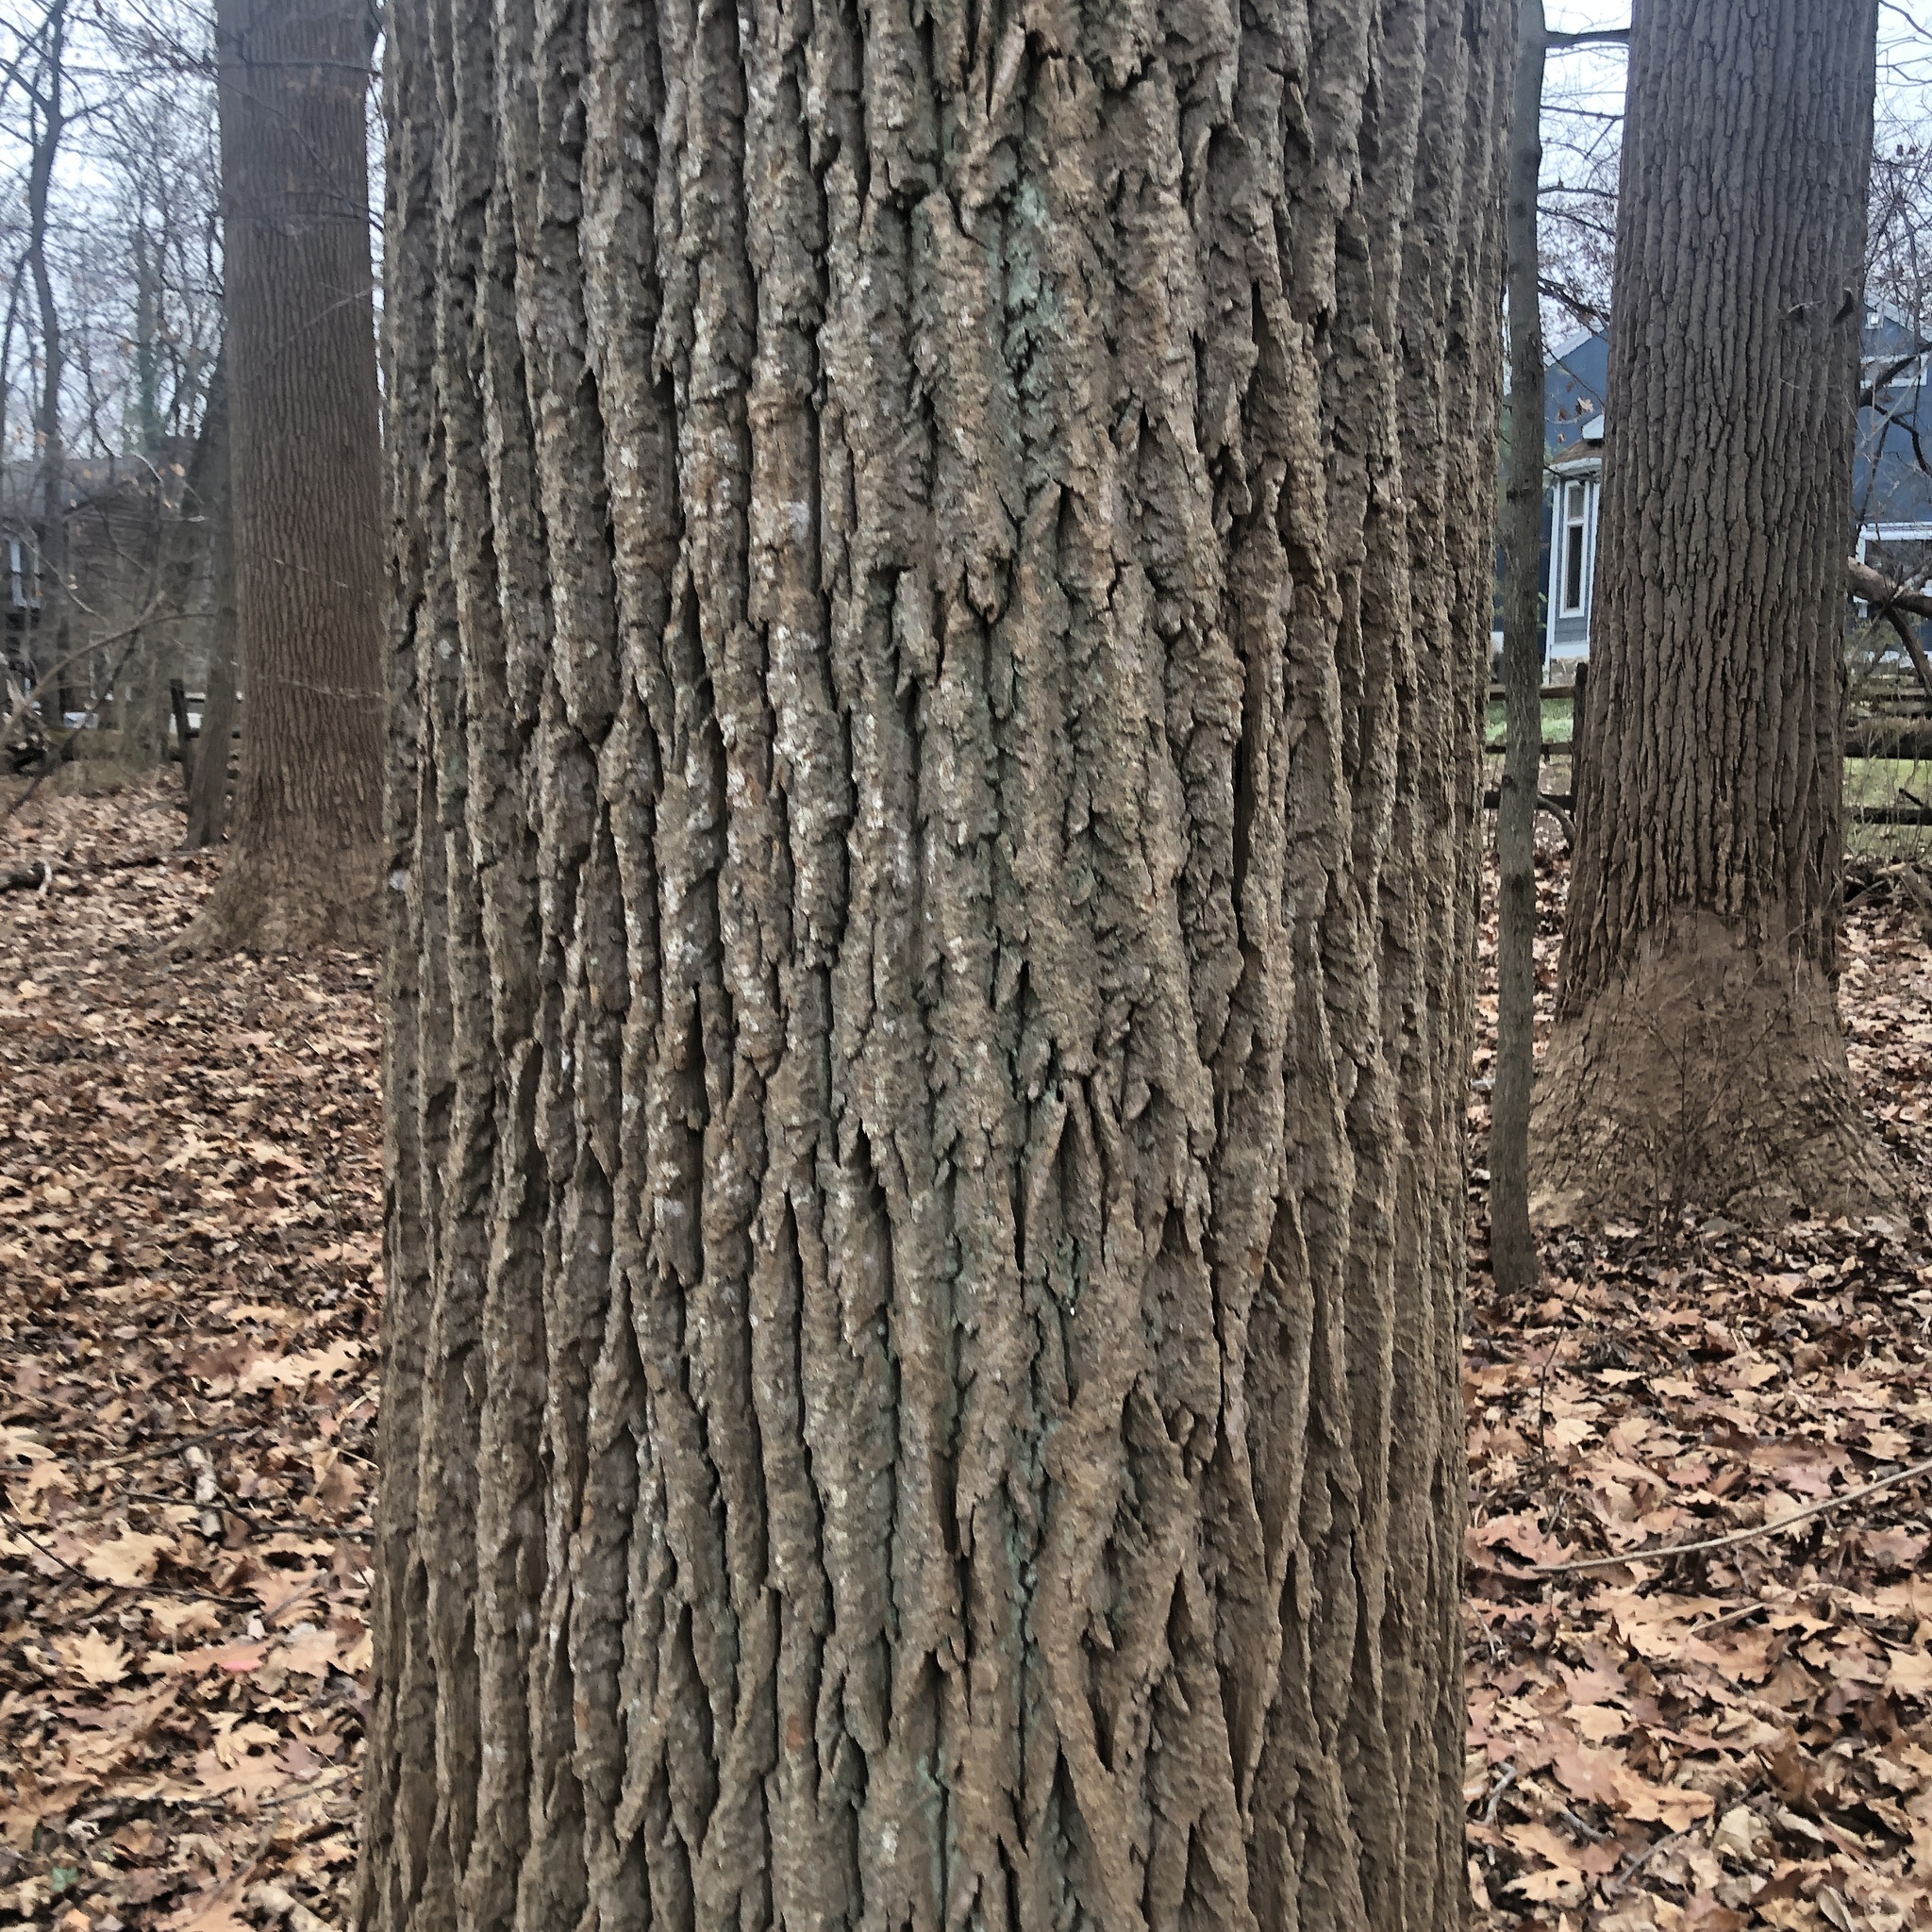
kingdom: Plantae
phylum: Tracheophyta
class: Magnoliopsida
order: Magnoliales
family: Magnoliaceae
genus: Liriodendron
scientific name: Liriodendron tulipifera
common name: Tulip tree
